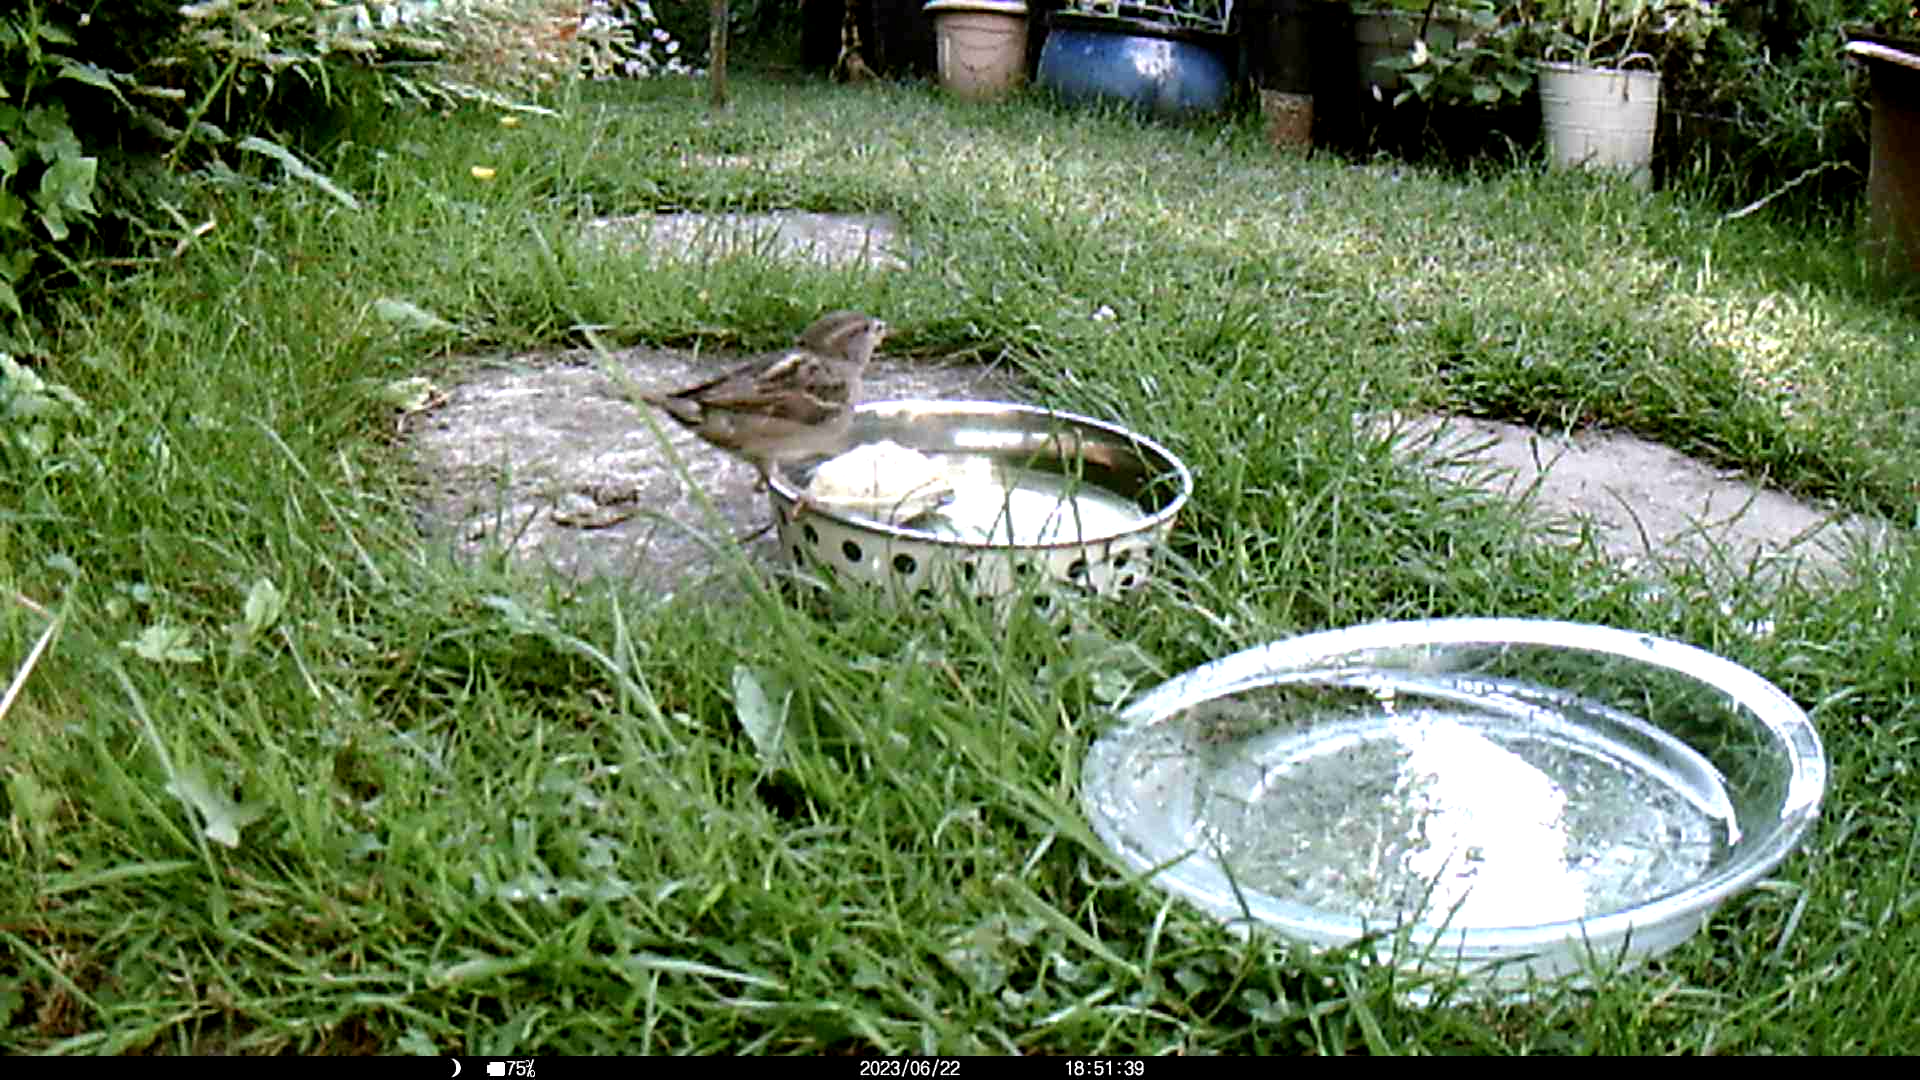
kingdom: Animalia
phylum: Chordata
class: Aves
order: Passeriformes
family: Passeridae
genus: Passer
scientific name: Passer domesticus
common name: House sparrow
